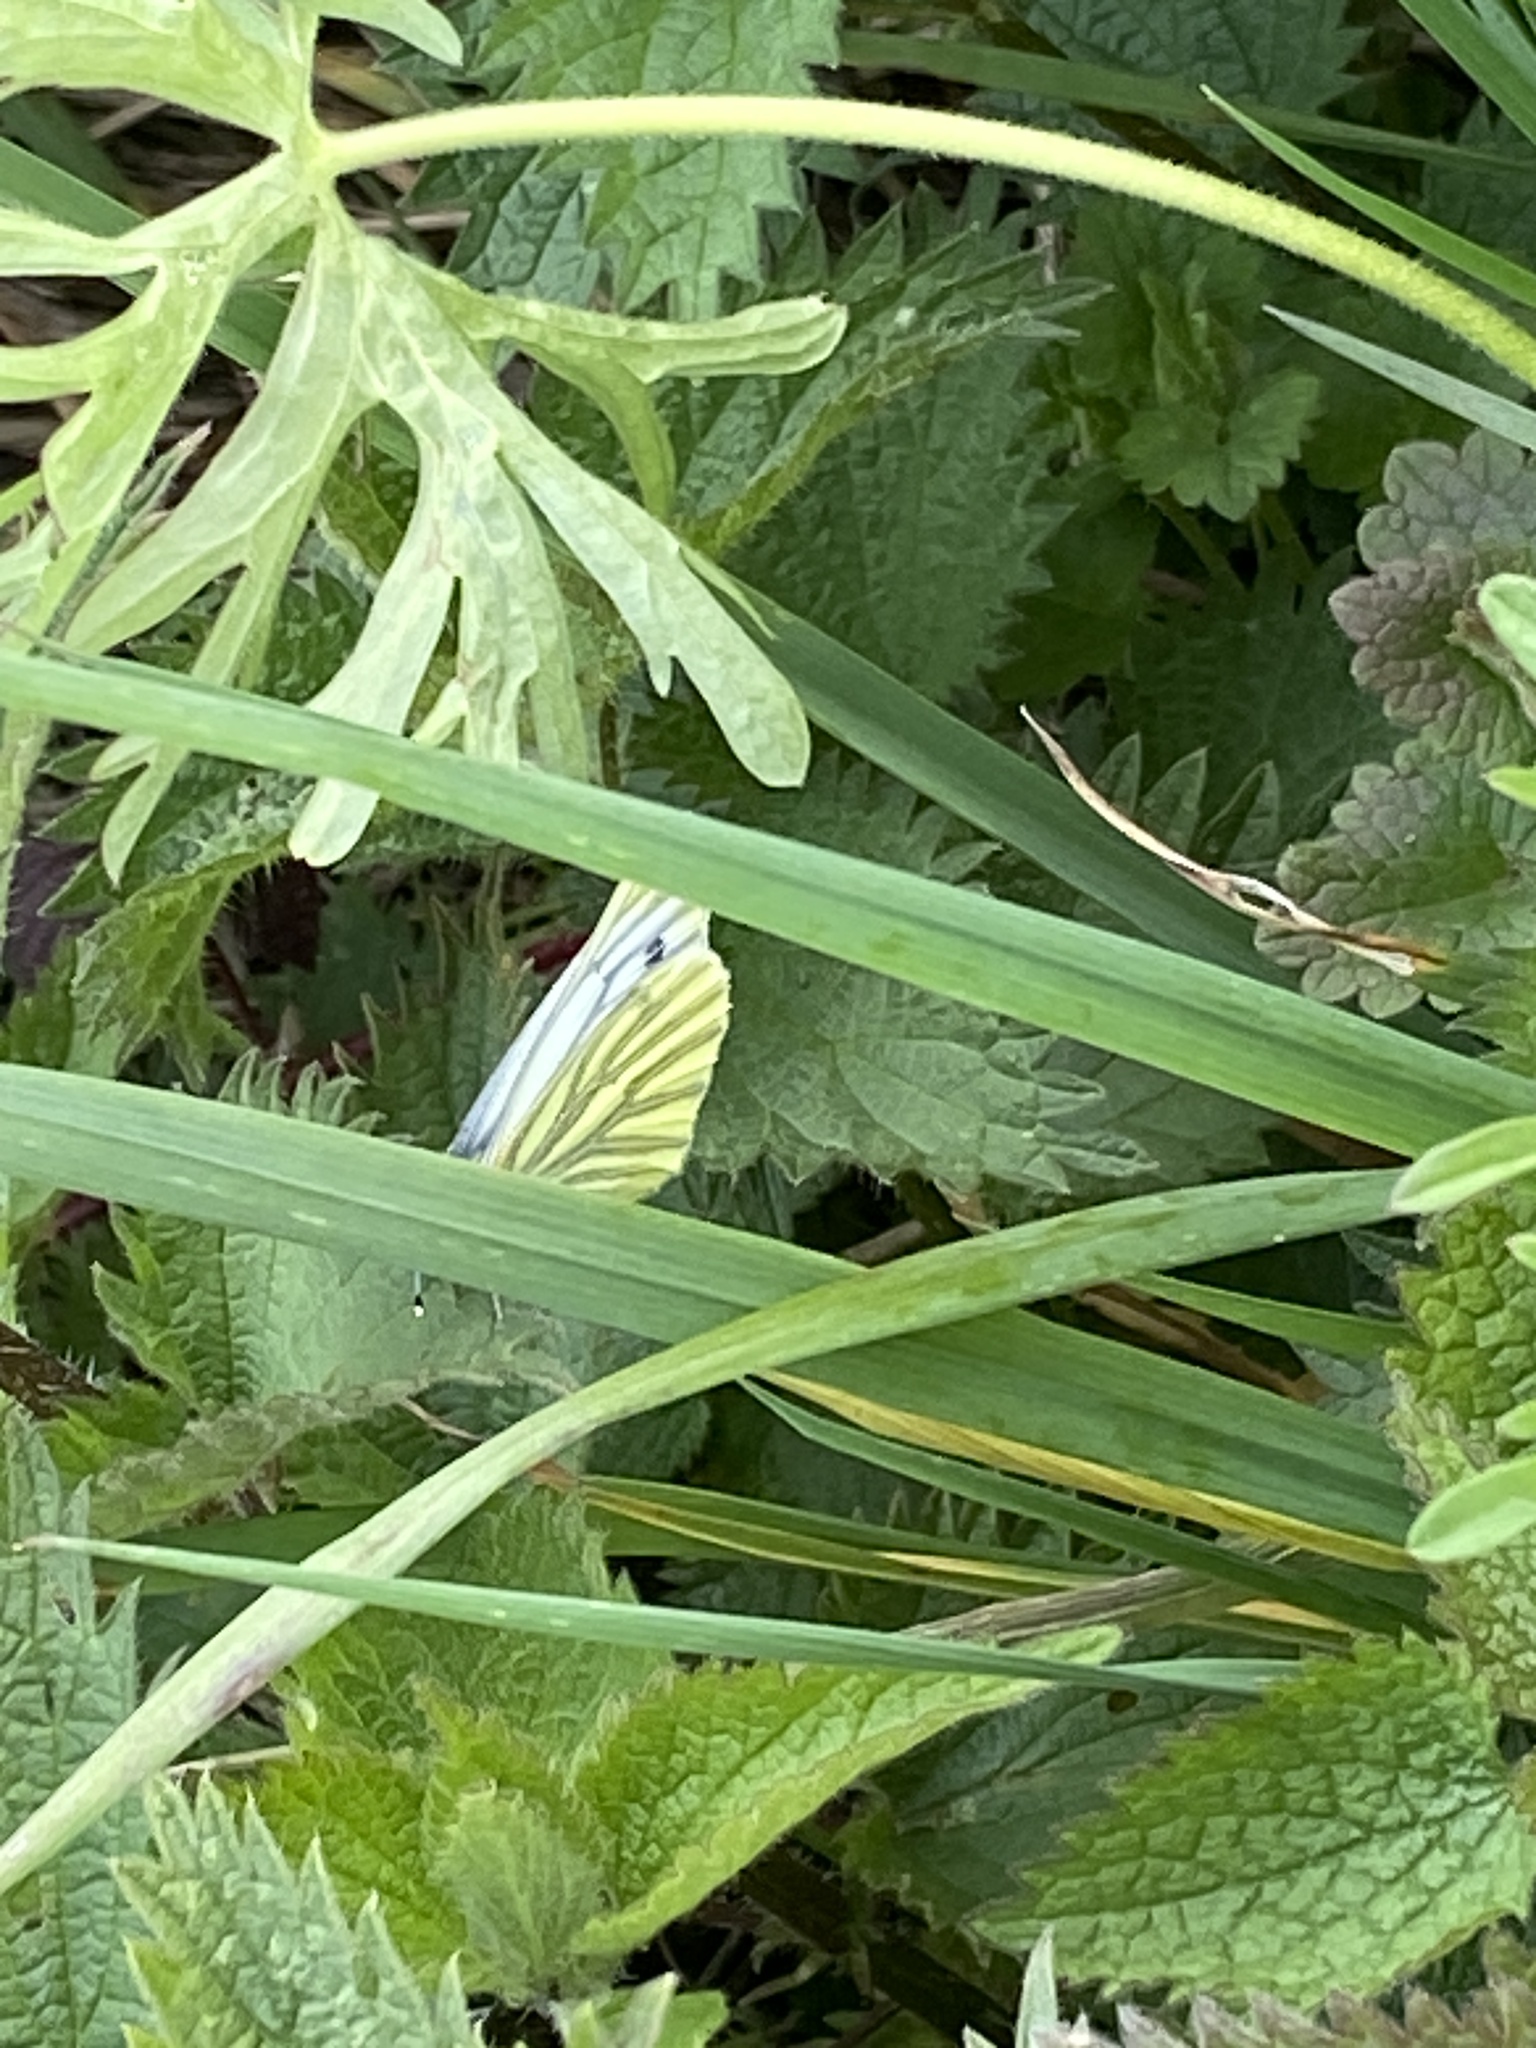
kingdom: Animalia
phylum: Arthropoda
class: Insecta
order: Lepidoptera
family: Pieridae
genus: Pieris
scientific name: Pieris napi
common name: Green-veined white
